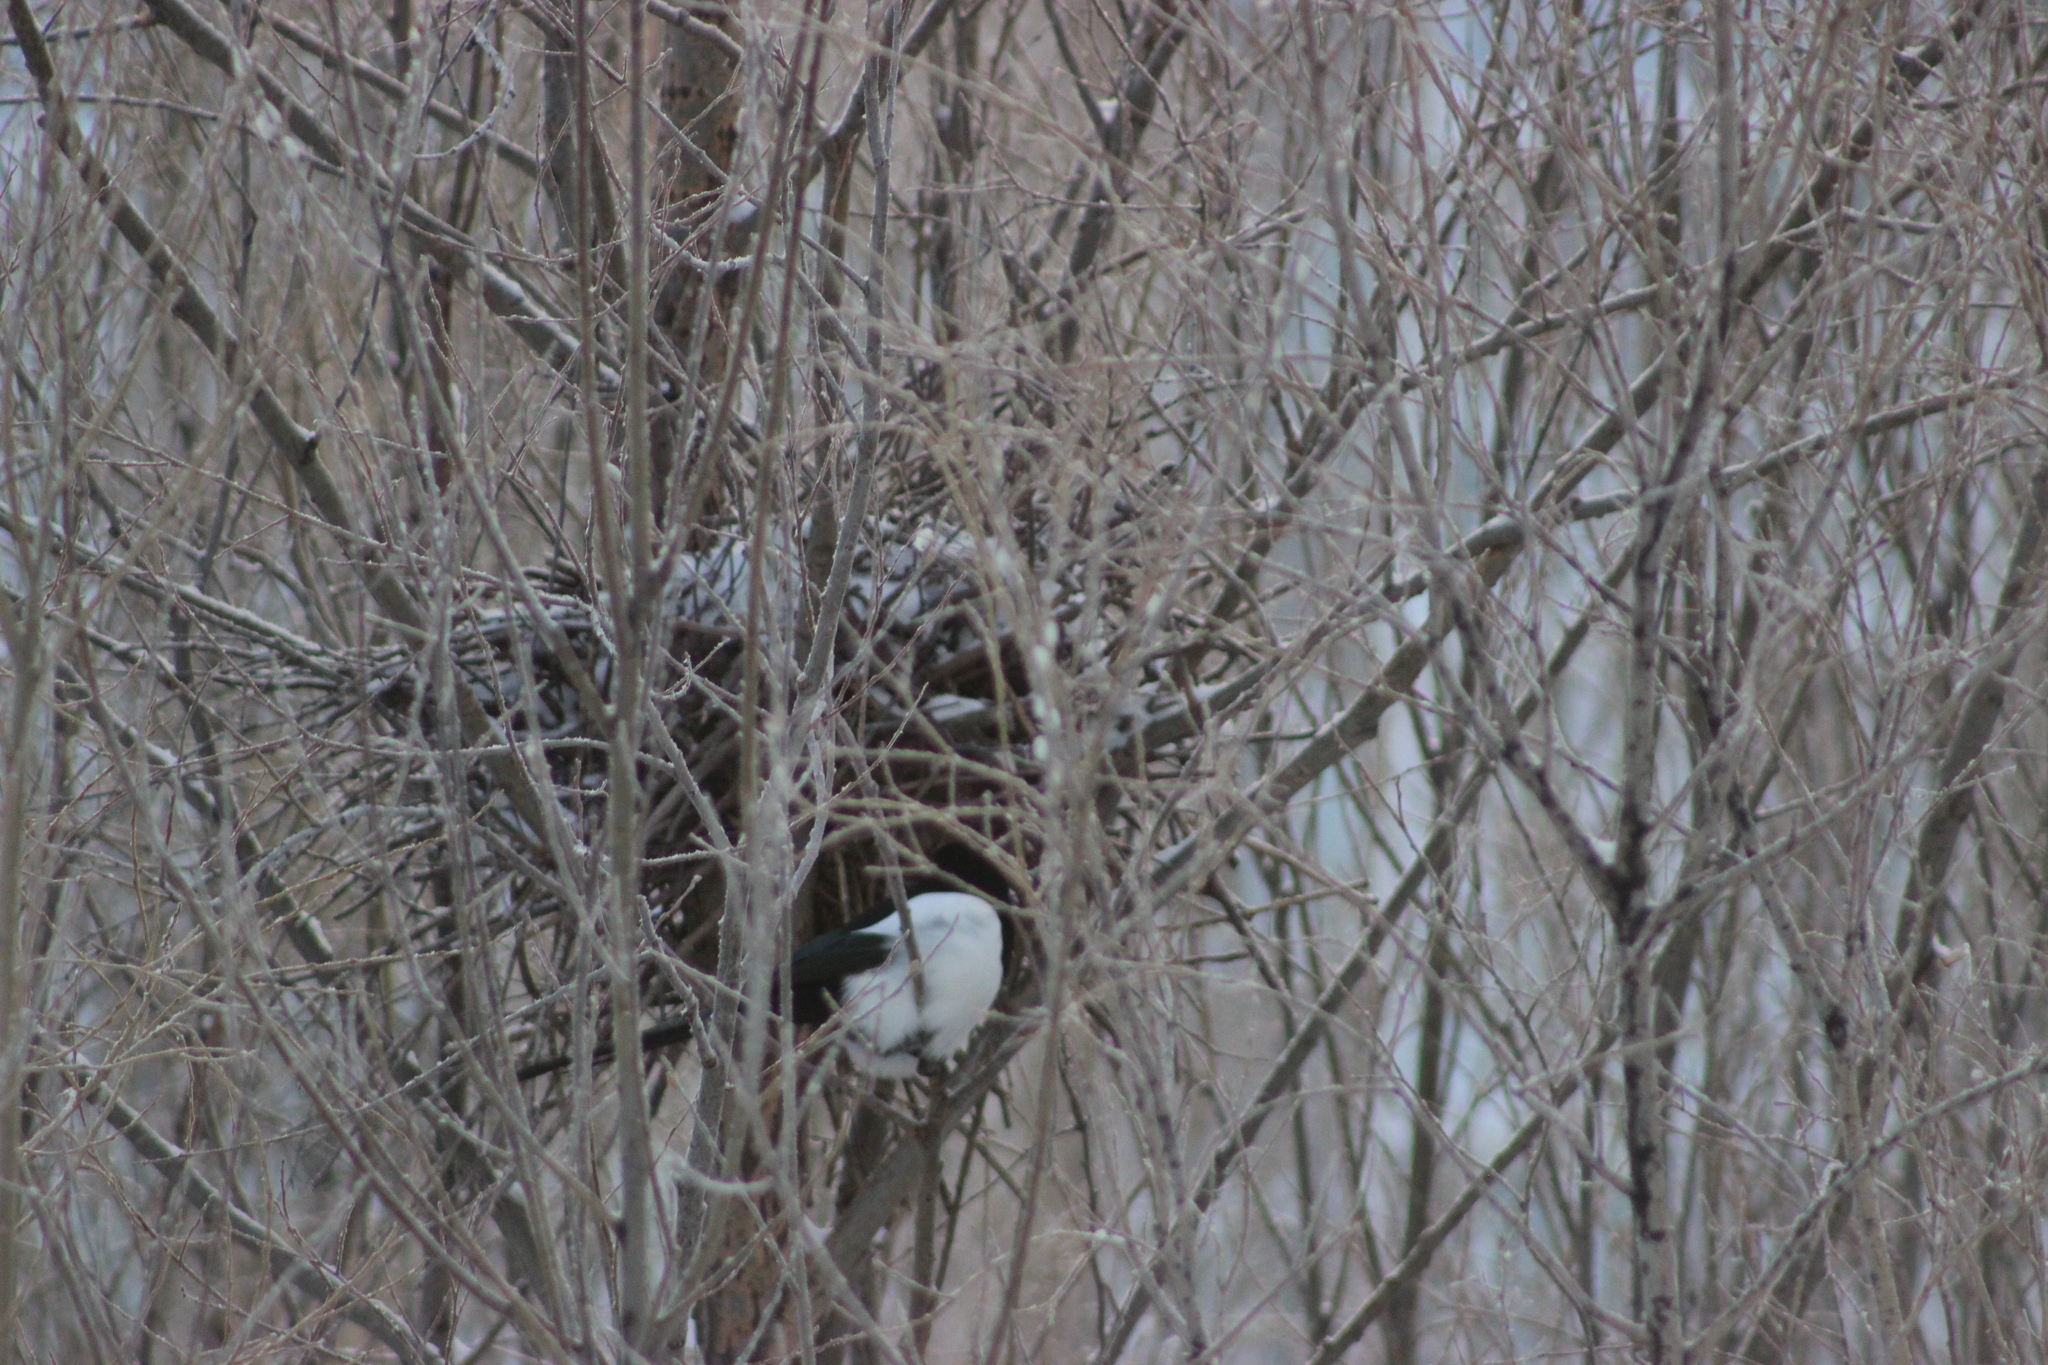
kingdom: Animalia
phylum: Chordata
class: Aves
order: Passeriformes
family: Corvidae
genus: Pica
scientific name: Pica pica
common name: Eurasian magpie
